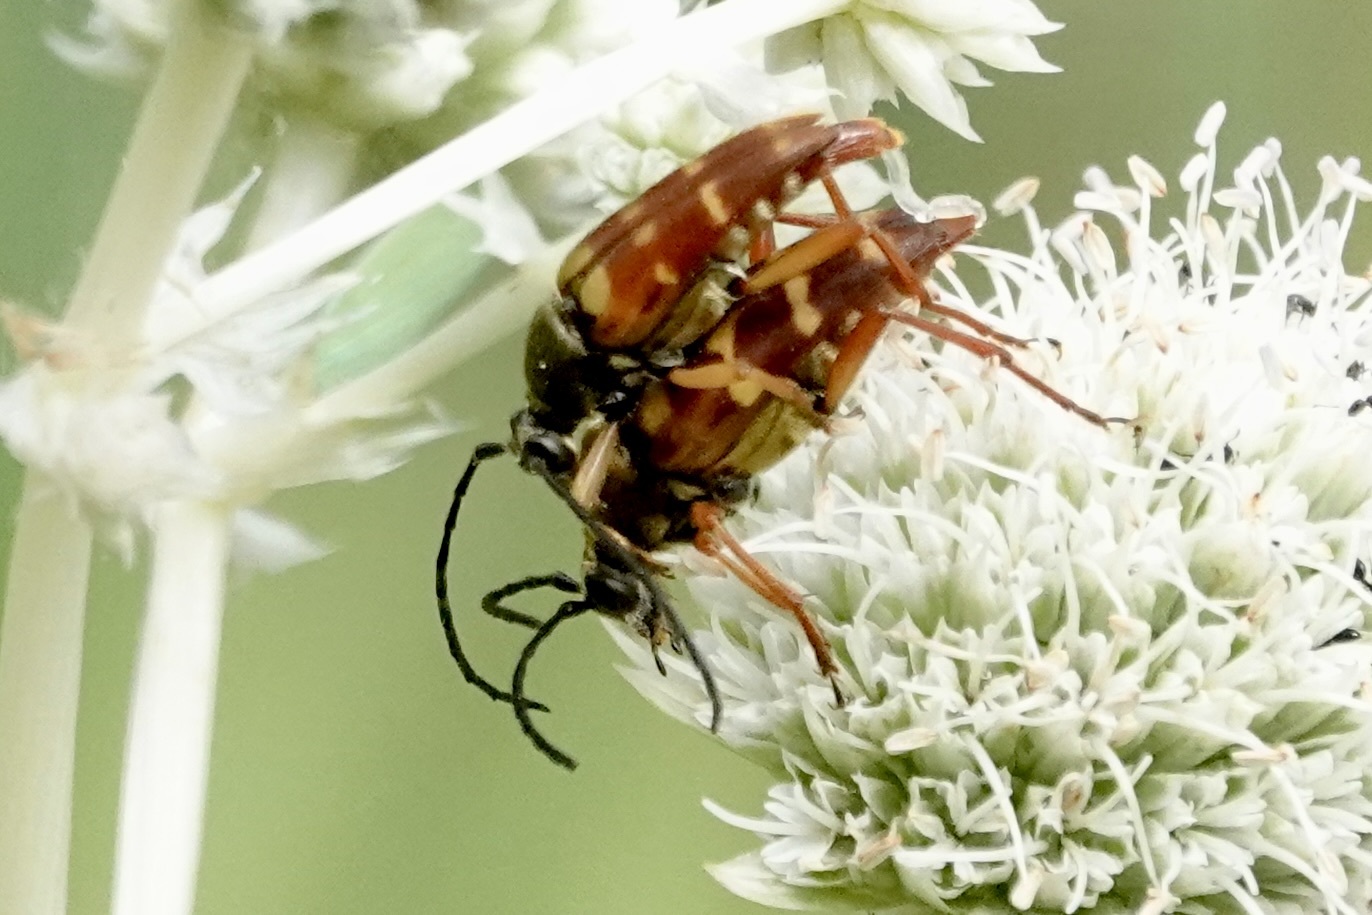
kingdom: Animalia
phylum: Arthropoda
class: Insecta
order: Coleoptera
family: Cerambycidae
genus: Typocerus
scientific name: Typocerus velutinus
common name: Banded longhorn beetle
